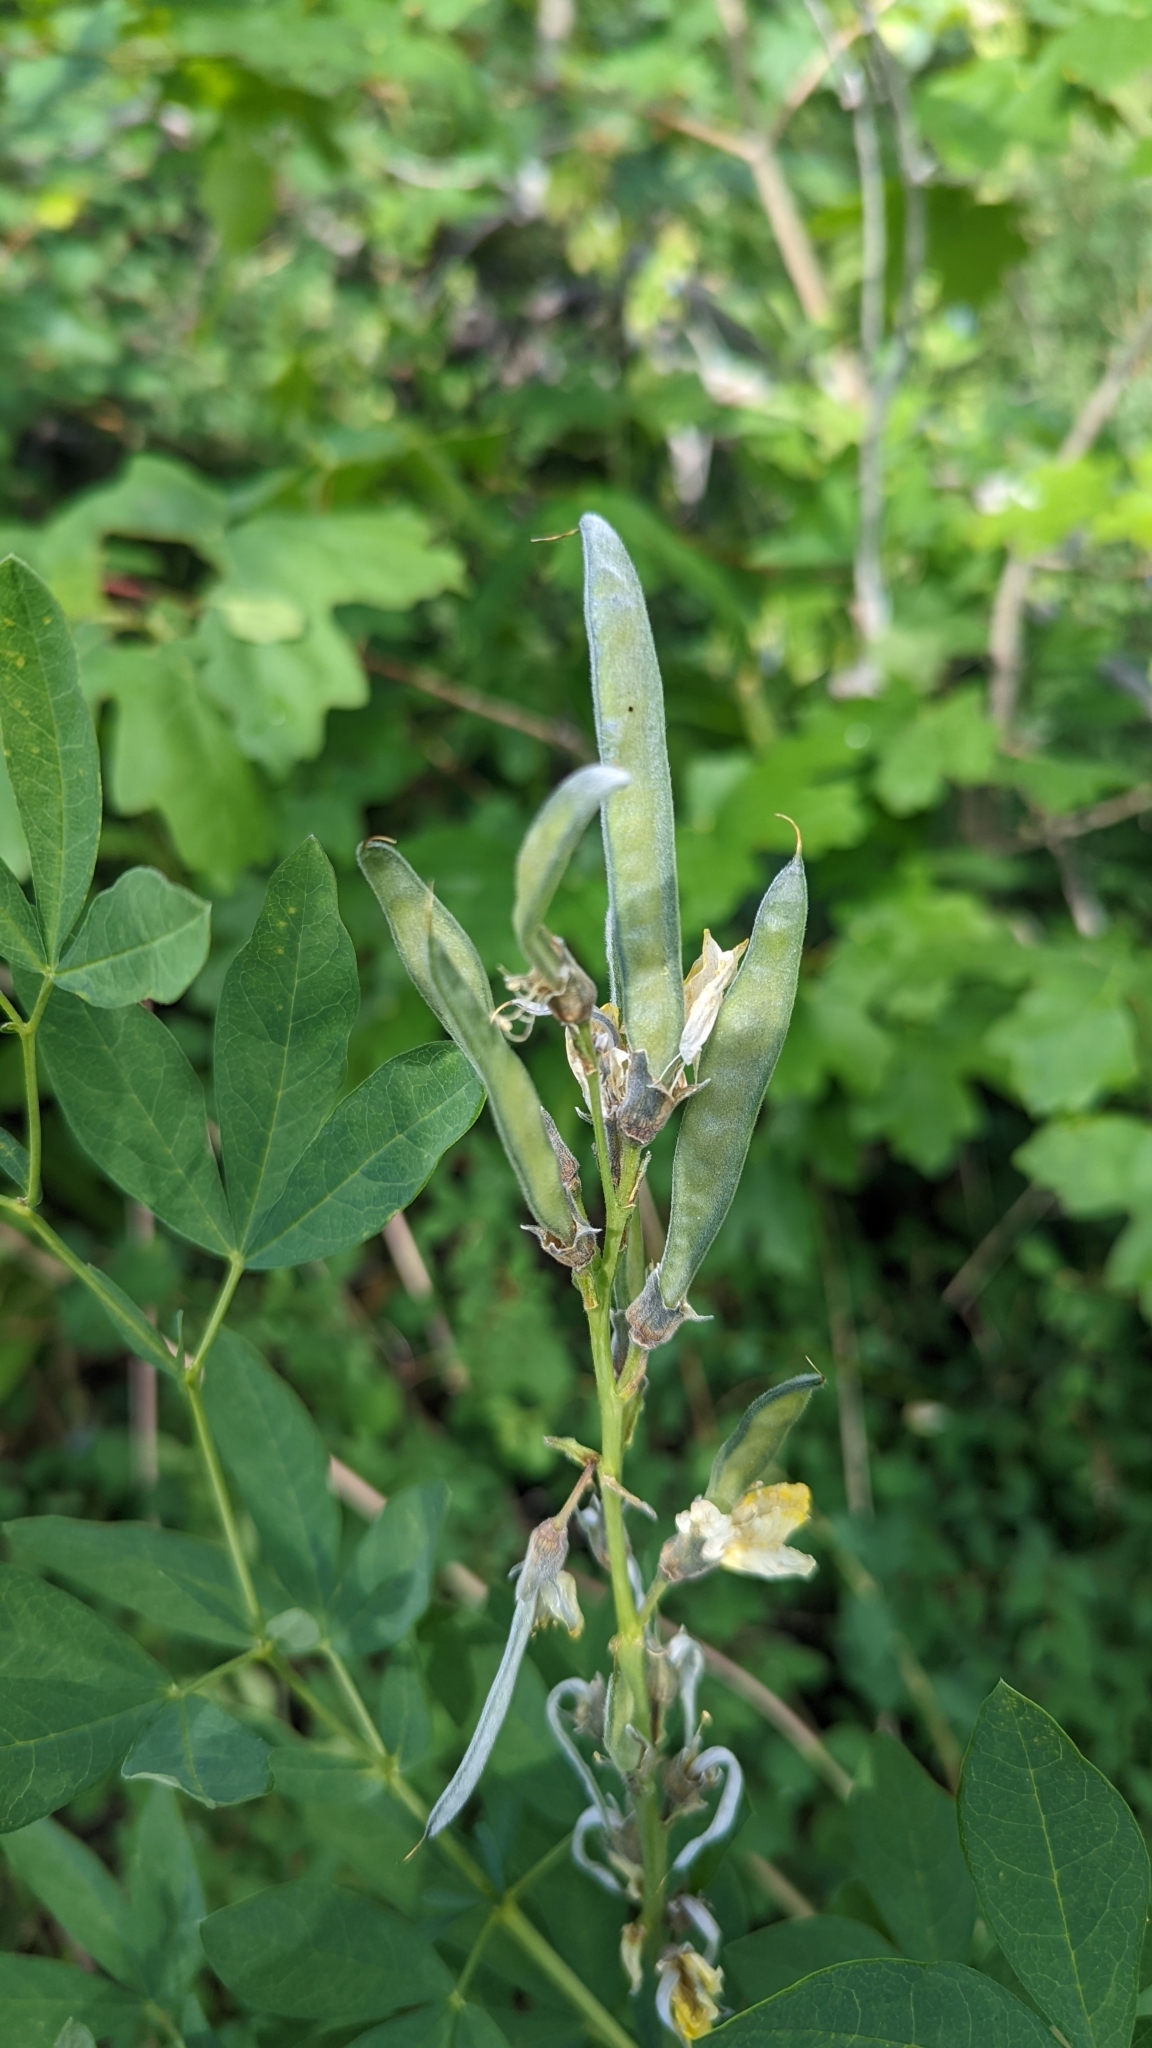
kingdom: Plantae
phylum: Tracheophyta
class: Magnoliopsida
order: Fabales
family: Fabaceae
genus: Thermopsis
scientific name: Thermopsis montana
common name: False lupin
